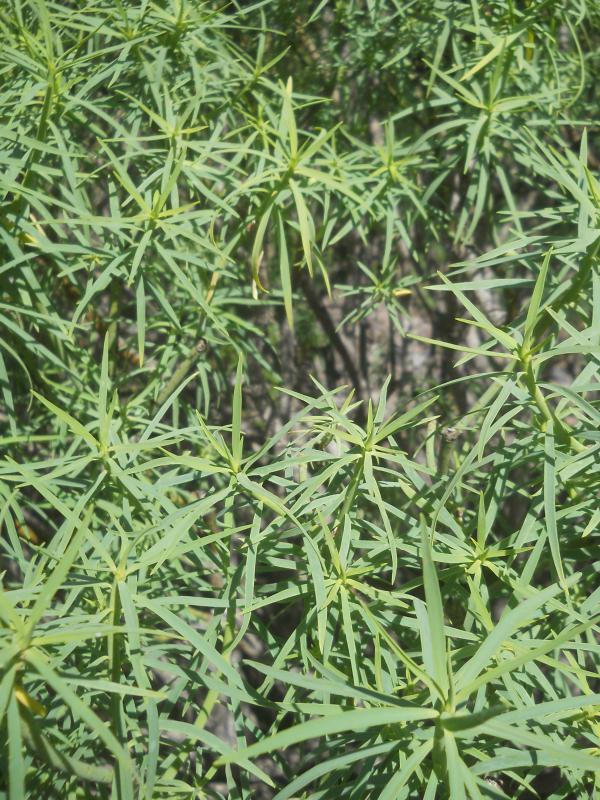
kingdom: Plantae
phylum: Tracheophyta
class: Magnoliopsida
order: Malpighiales
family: Euphorbiaceae
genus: Euphorbia
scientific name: Euphorbia lamarckii
